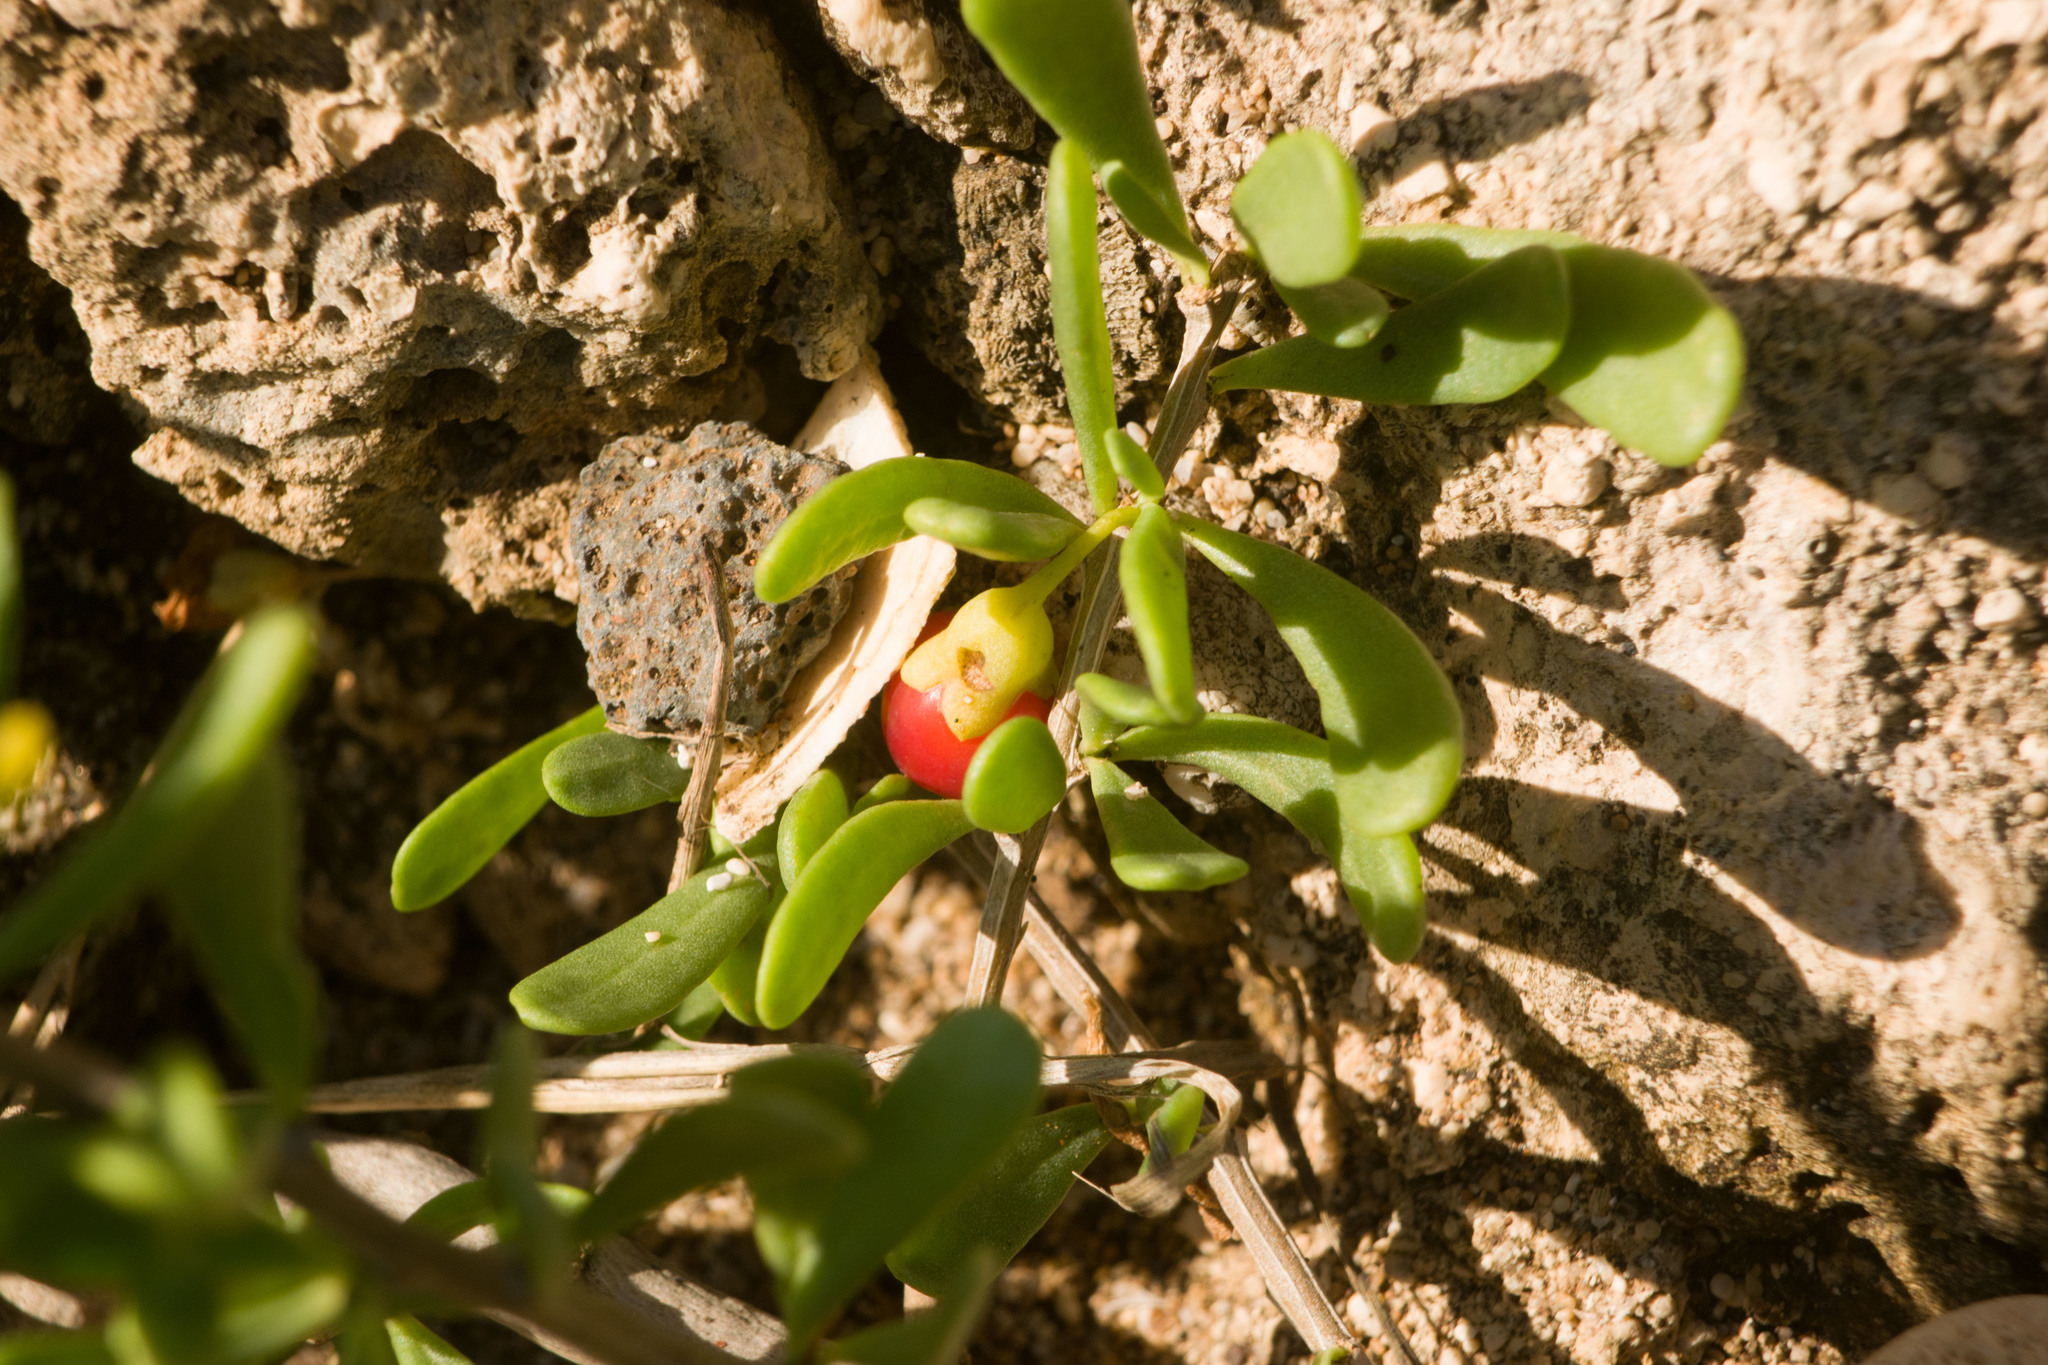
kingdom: Plantae
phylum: Tracheophyta
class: Magnoliopsida
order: Solanales
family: Solanaceae
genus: Lycium
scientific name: Lycium sandwicense
